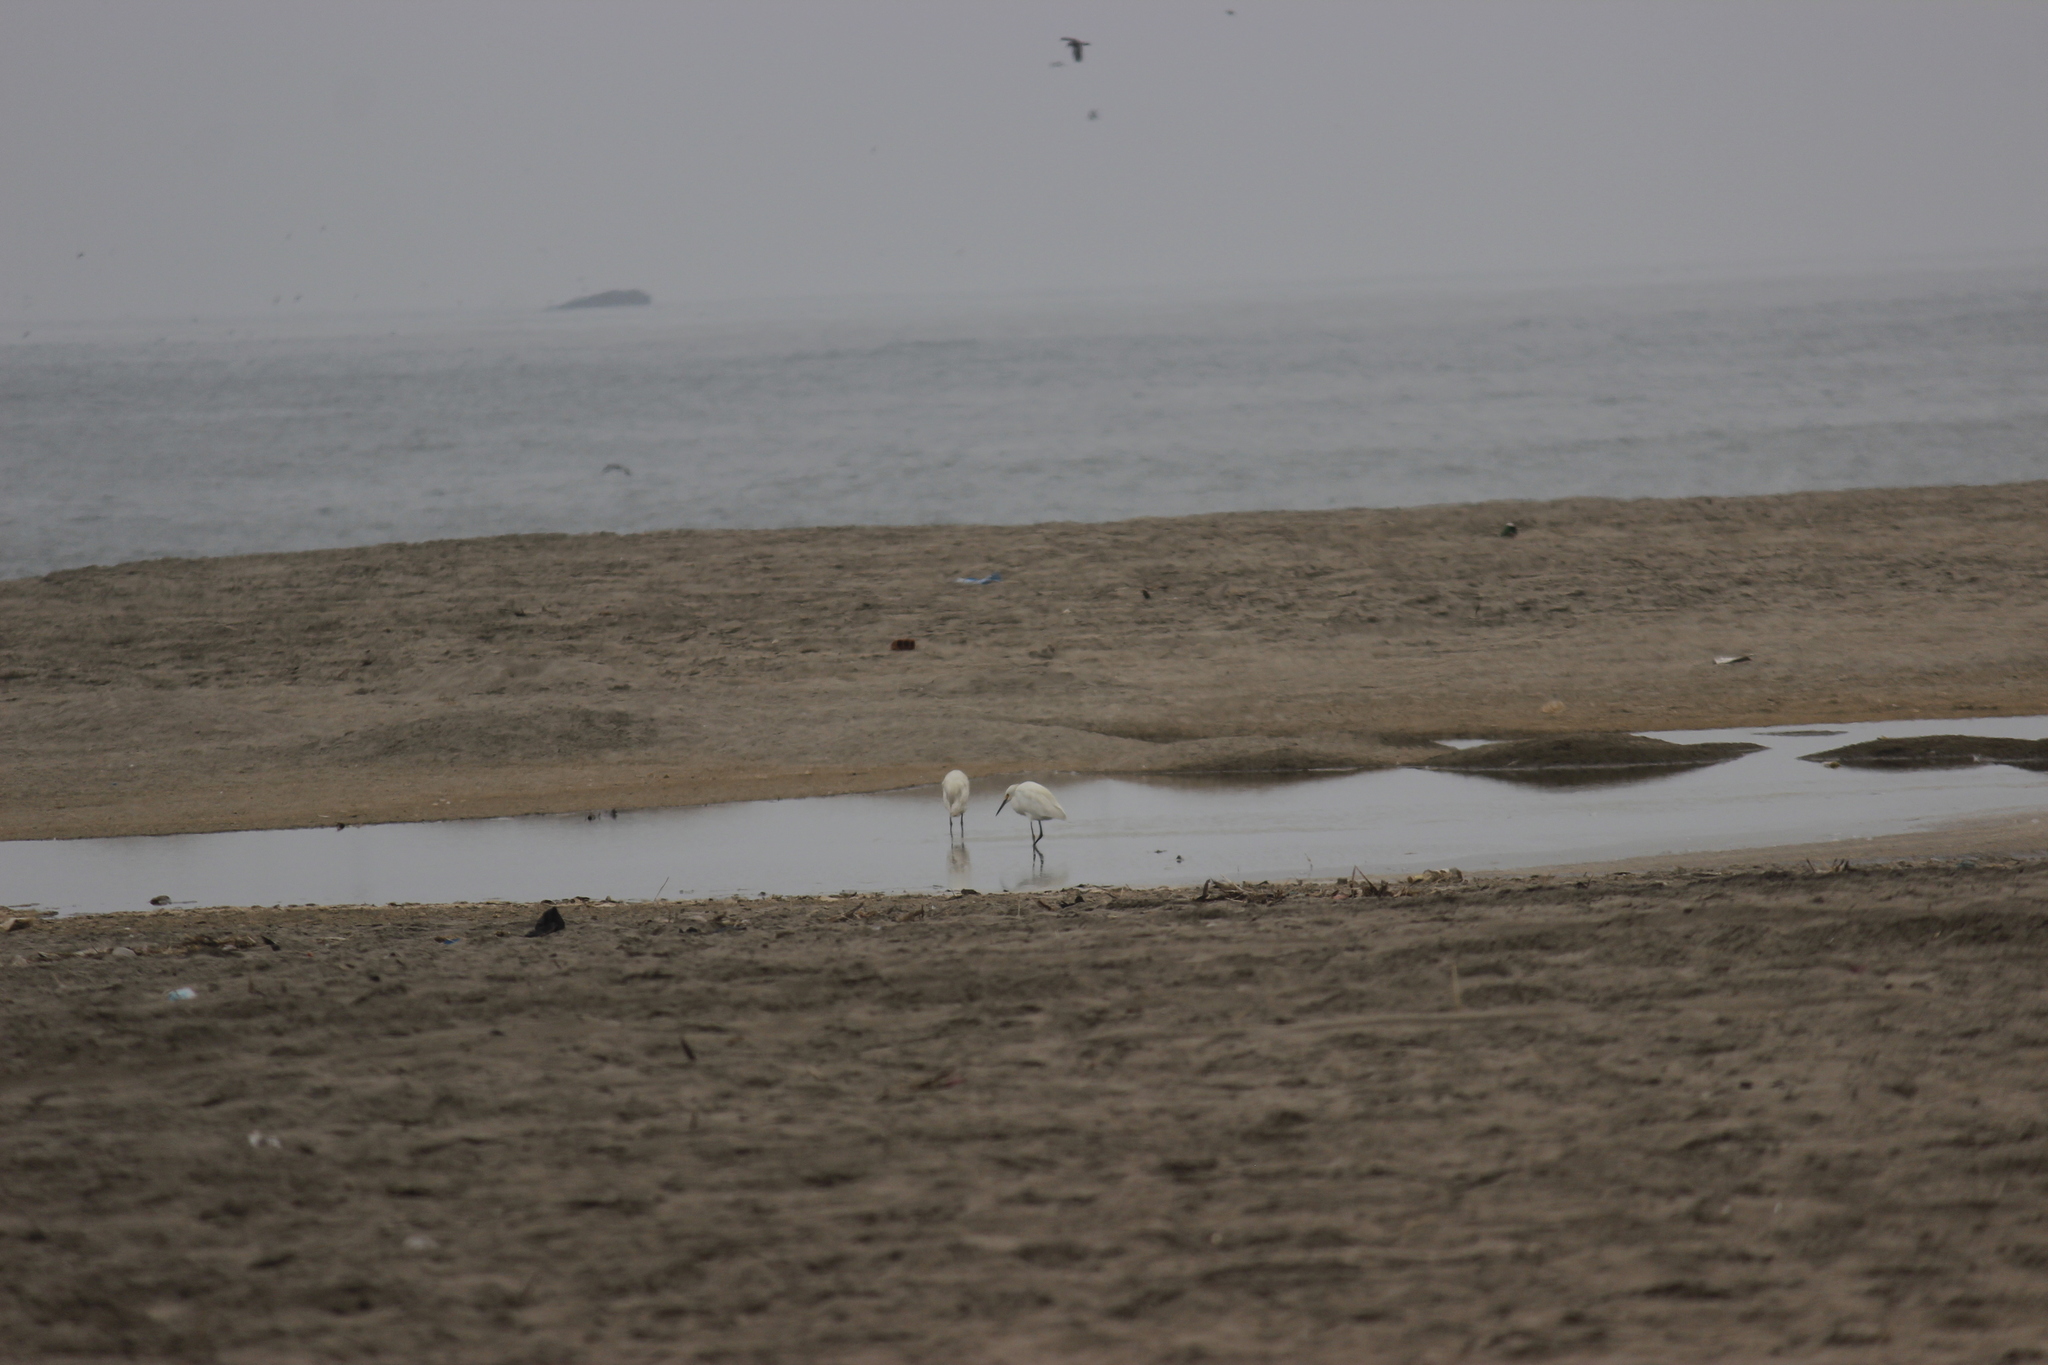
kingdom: Animalia
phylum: Chordata
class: Aves
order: Pelecaniformes
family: Ardeidae
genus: Egretta
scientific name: Egretta thula
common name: Snowy egret
